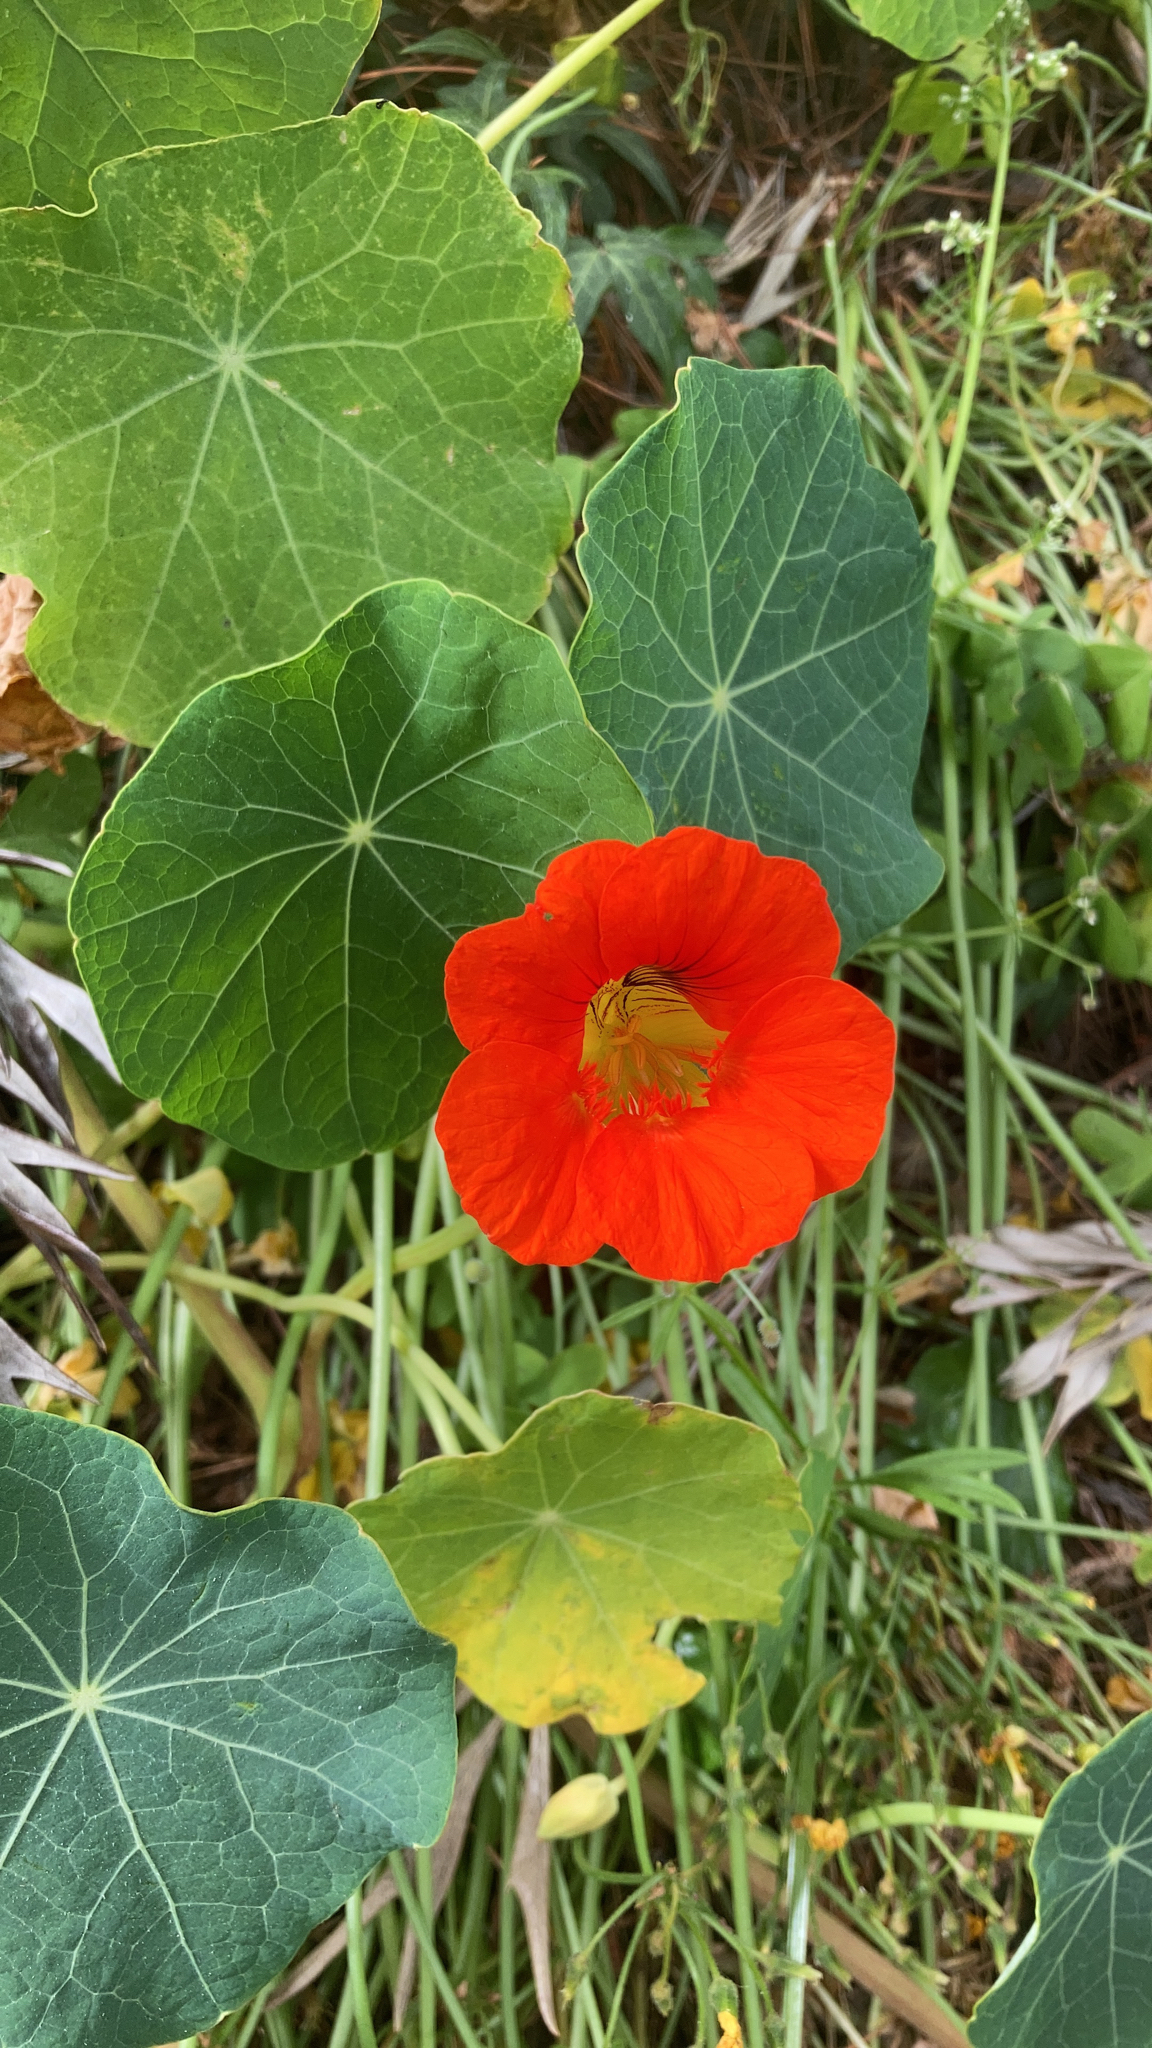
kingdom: Plantae
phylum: Tracheophyta
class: Magnoliopsida
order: Brassicales
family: Tropaeolaceae
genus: Tropaeolum
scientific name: Tropaeolum majus
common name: Nasturtium
